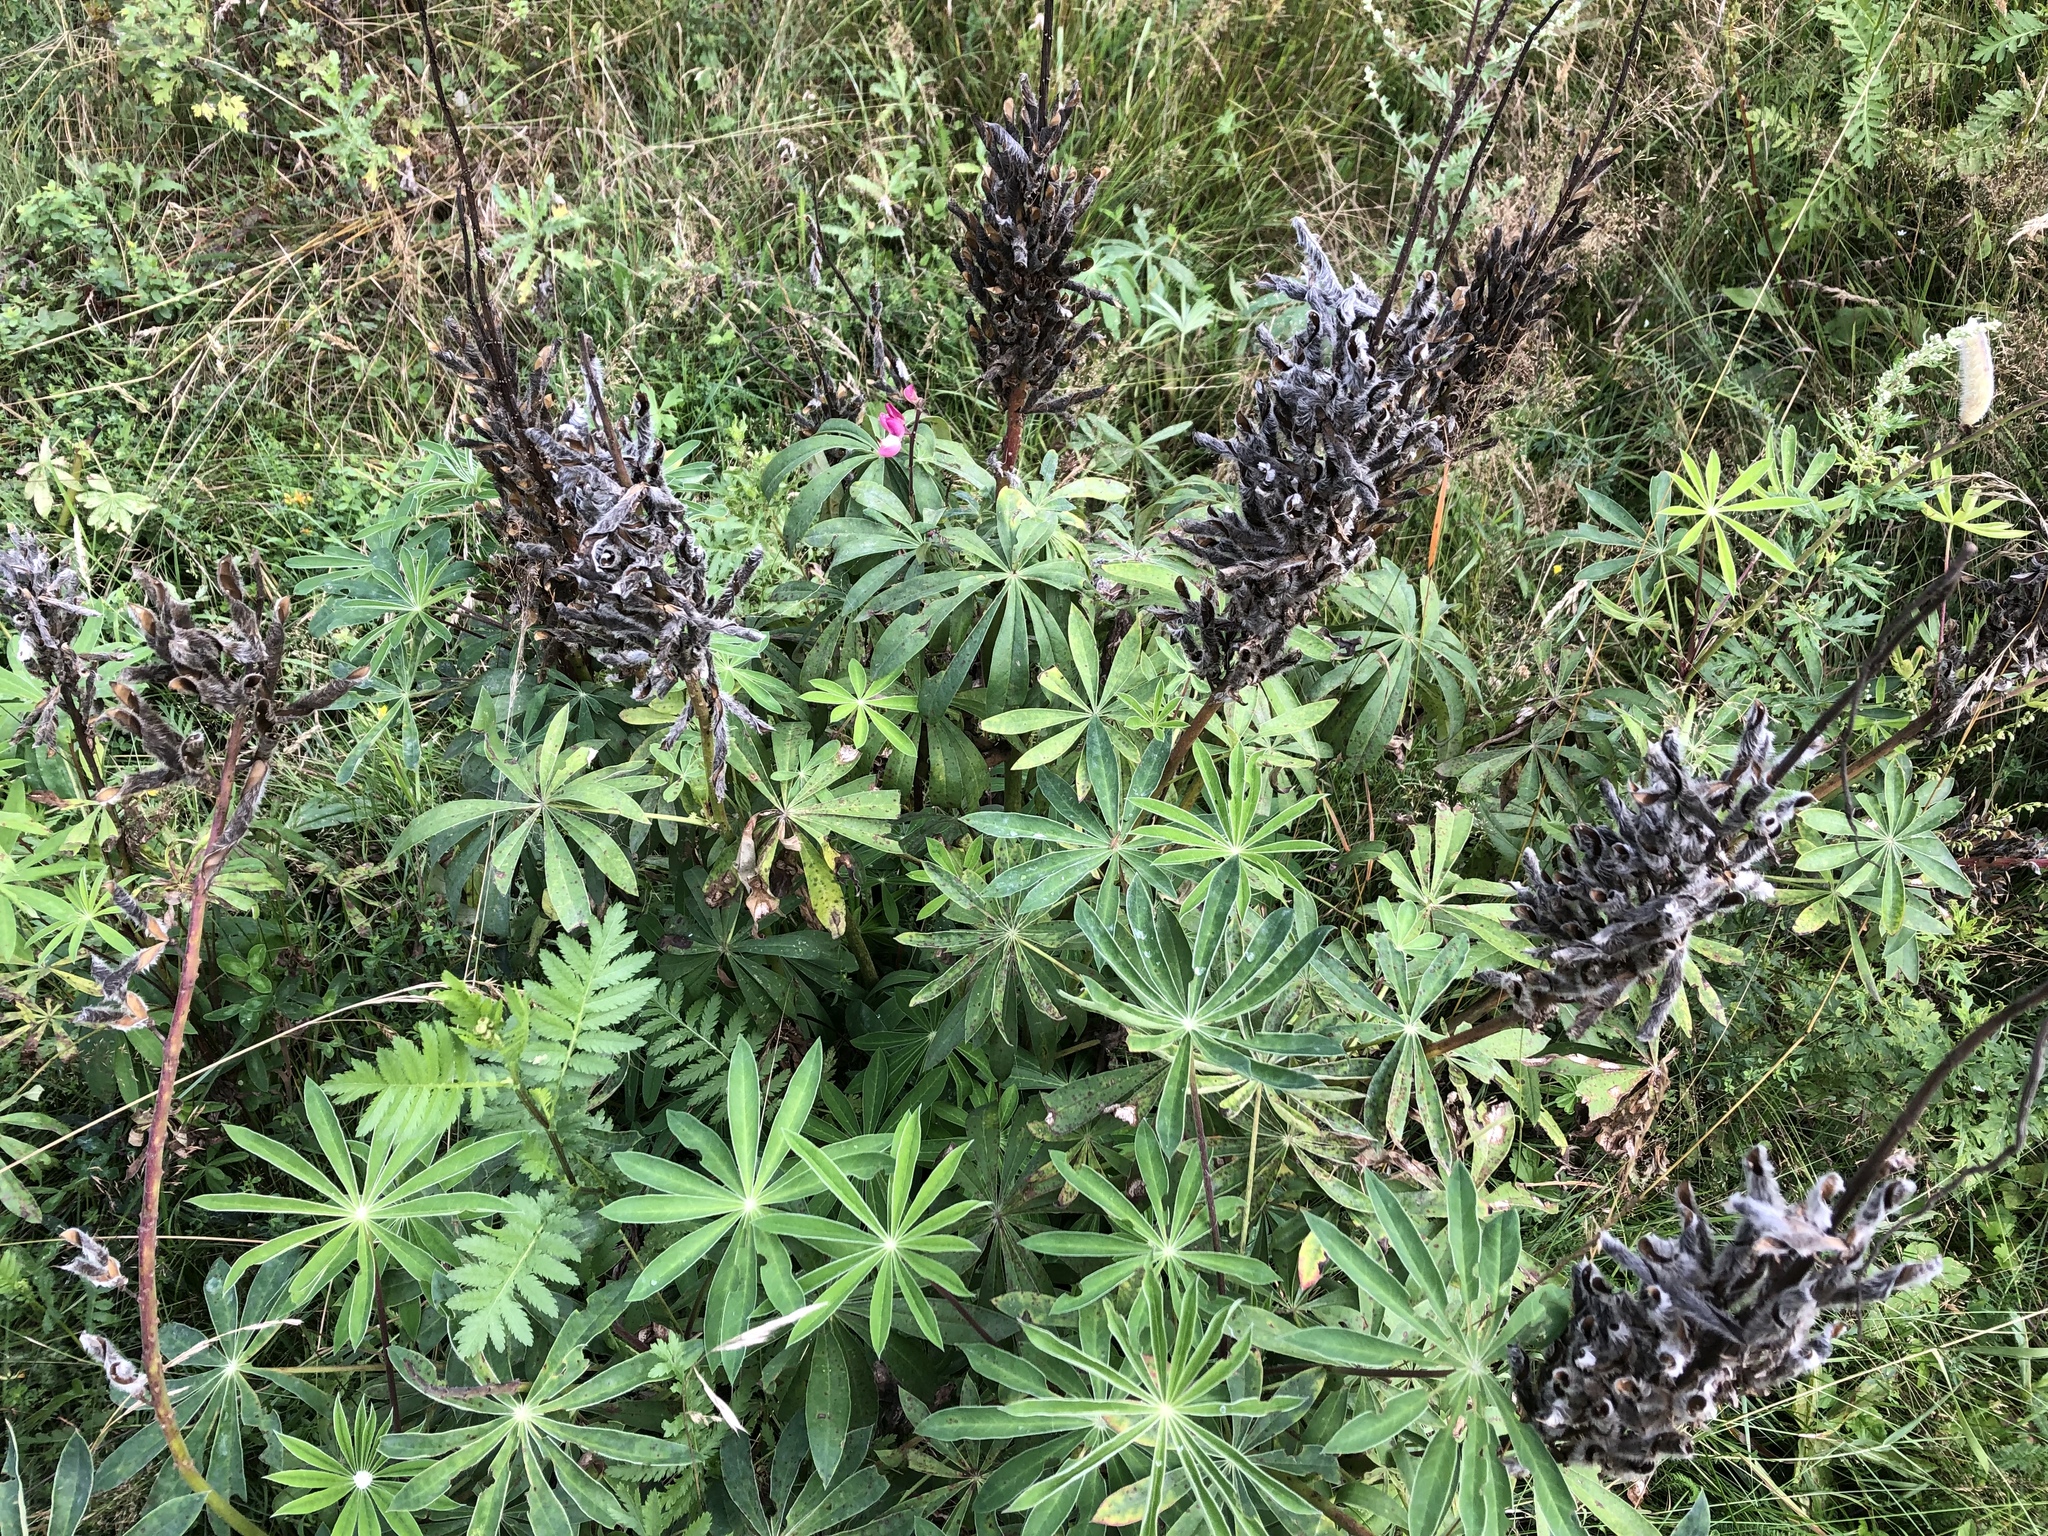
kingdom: Plantae
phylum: Tracheophyta
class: Magnoliopsida
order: Fabales
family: Fabaceae
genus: Lupinus
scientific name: Lupinus polyphyllus
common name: Garden lupin
